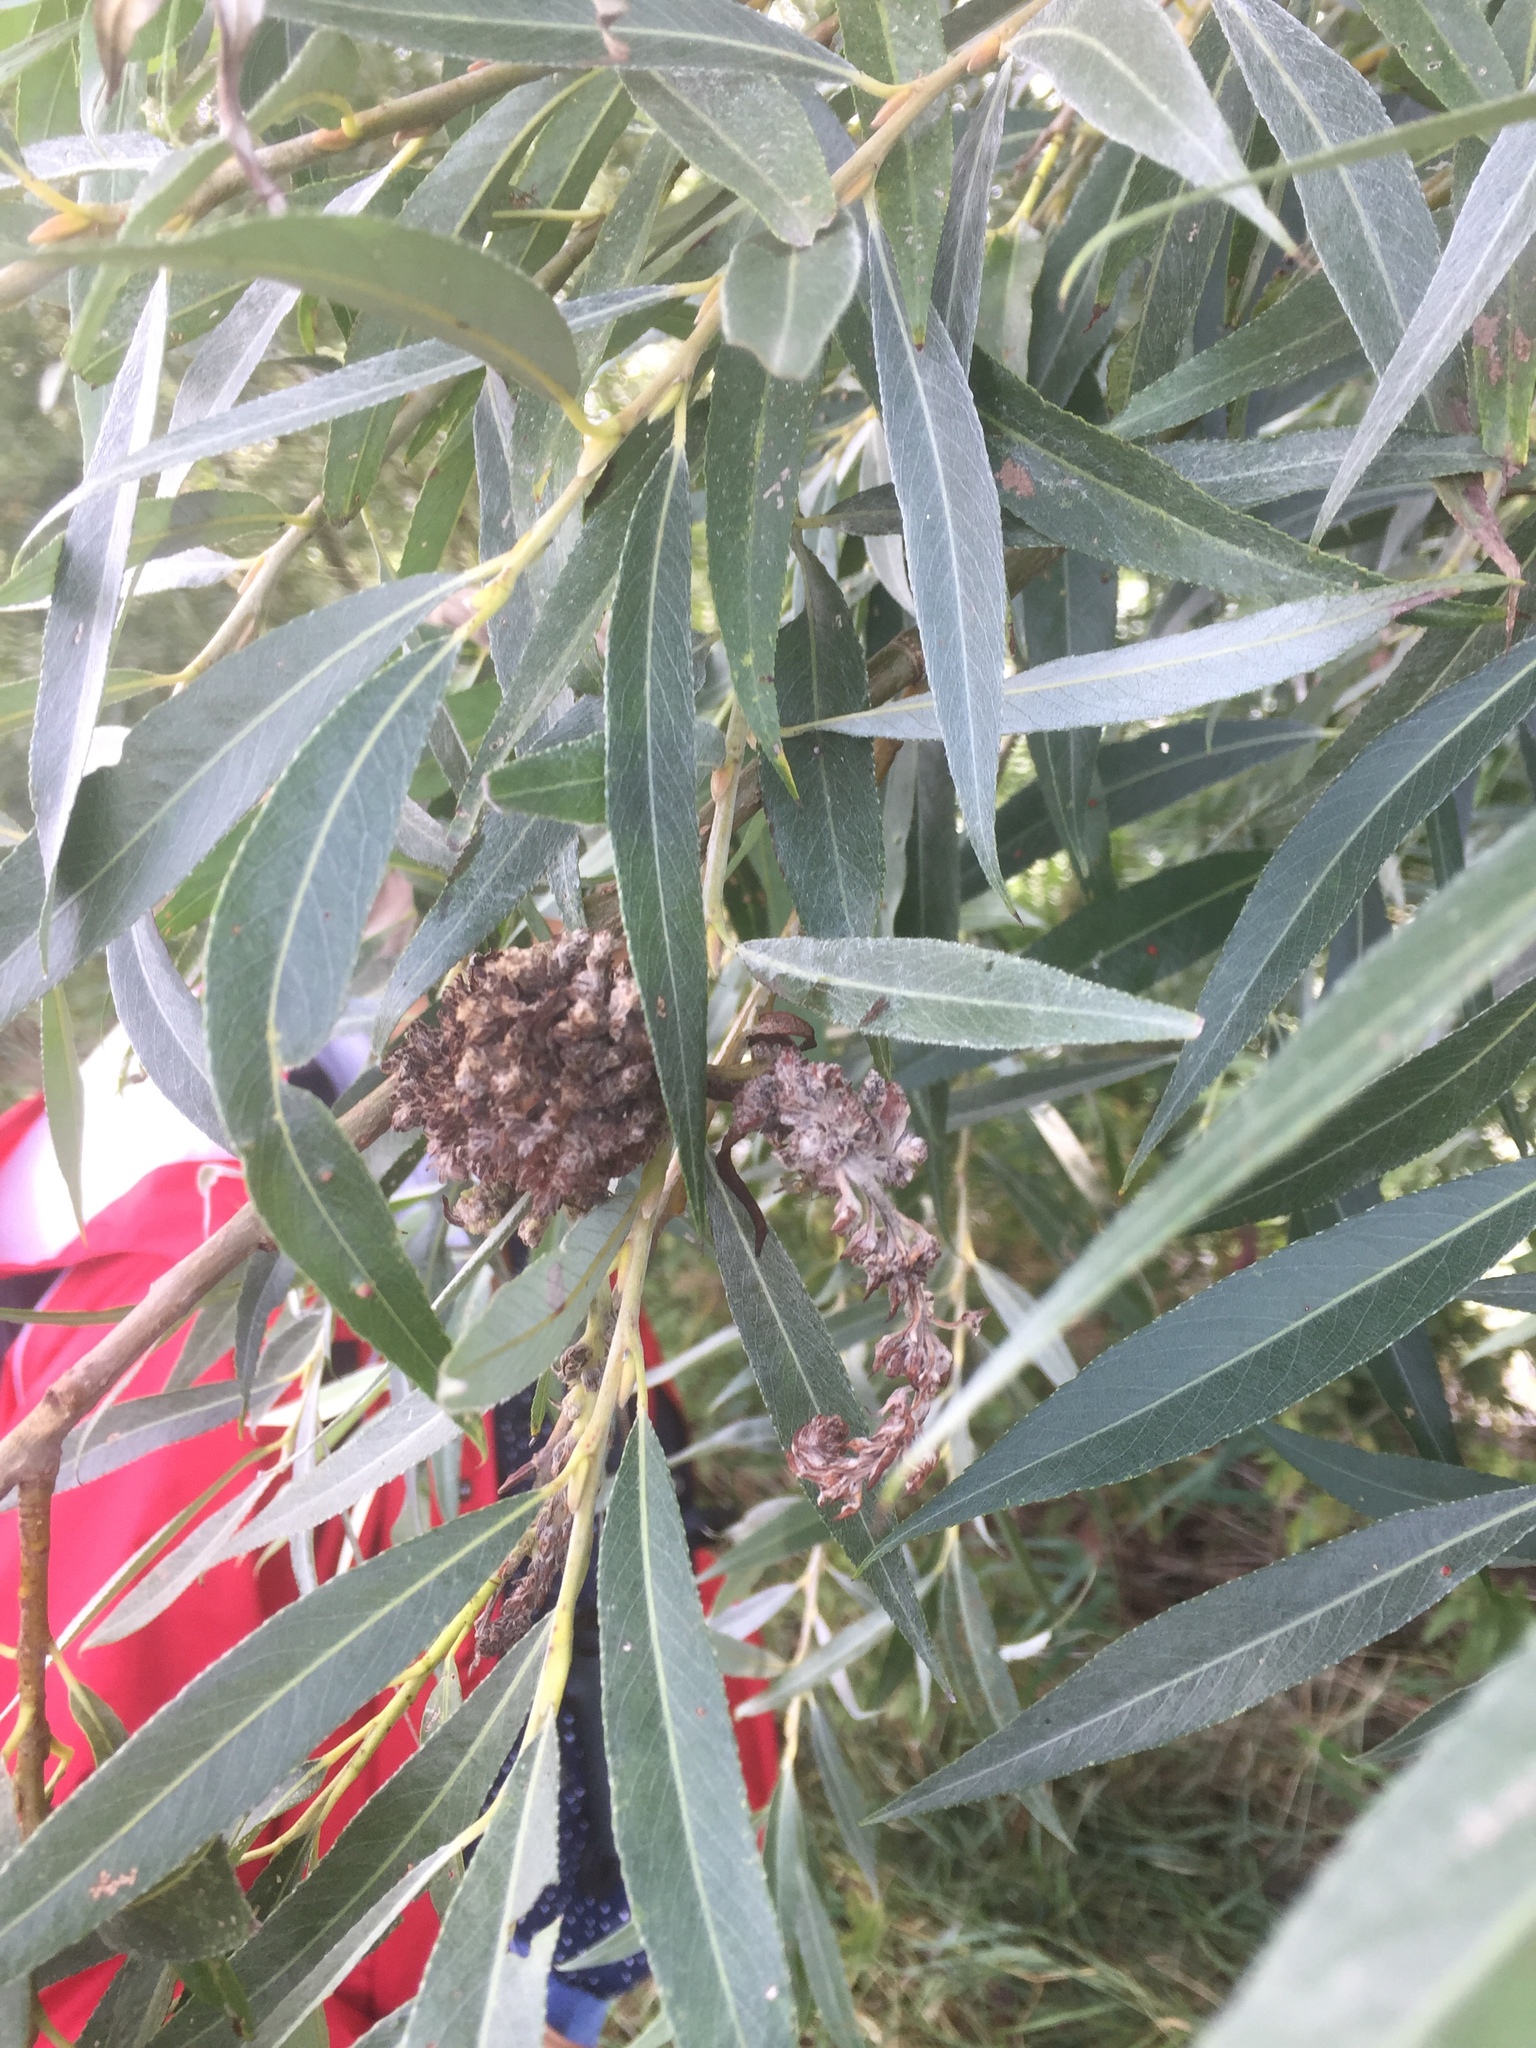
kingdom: Animalia
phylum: Arthropoda
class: Arachnida
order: Trombidiformes
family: Eriophyidae
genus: Stenacis
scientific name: Stenacis triradiatus
